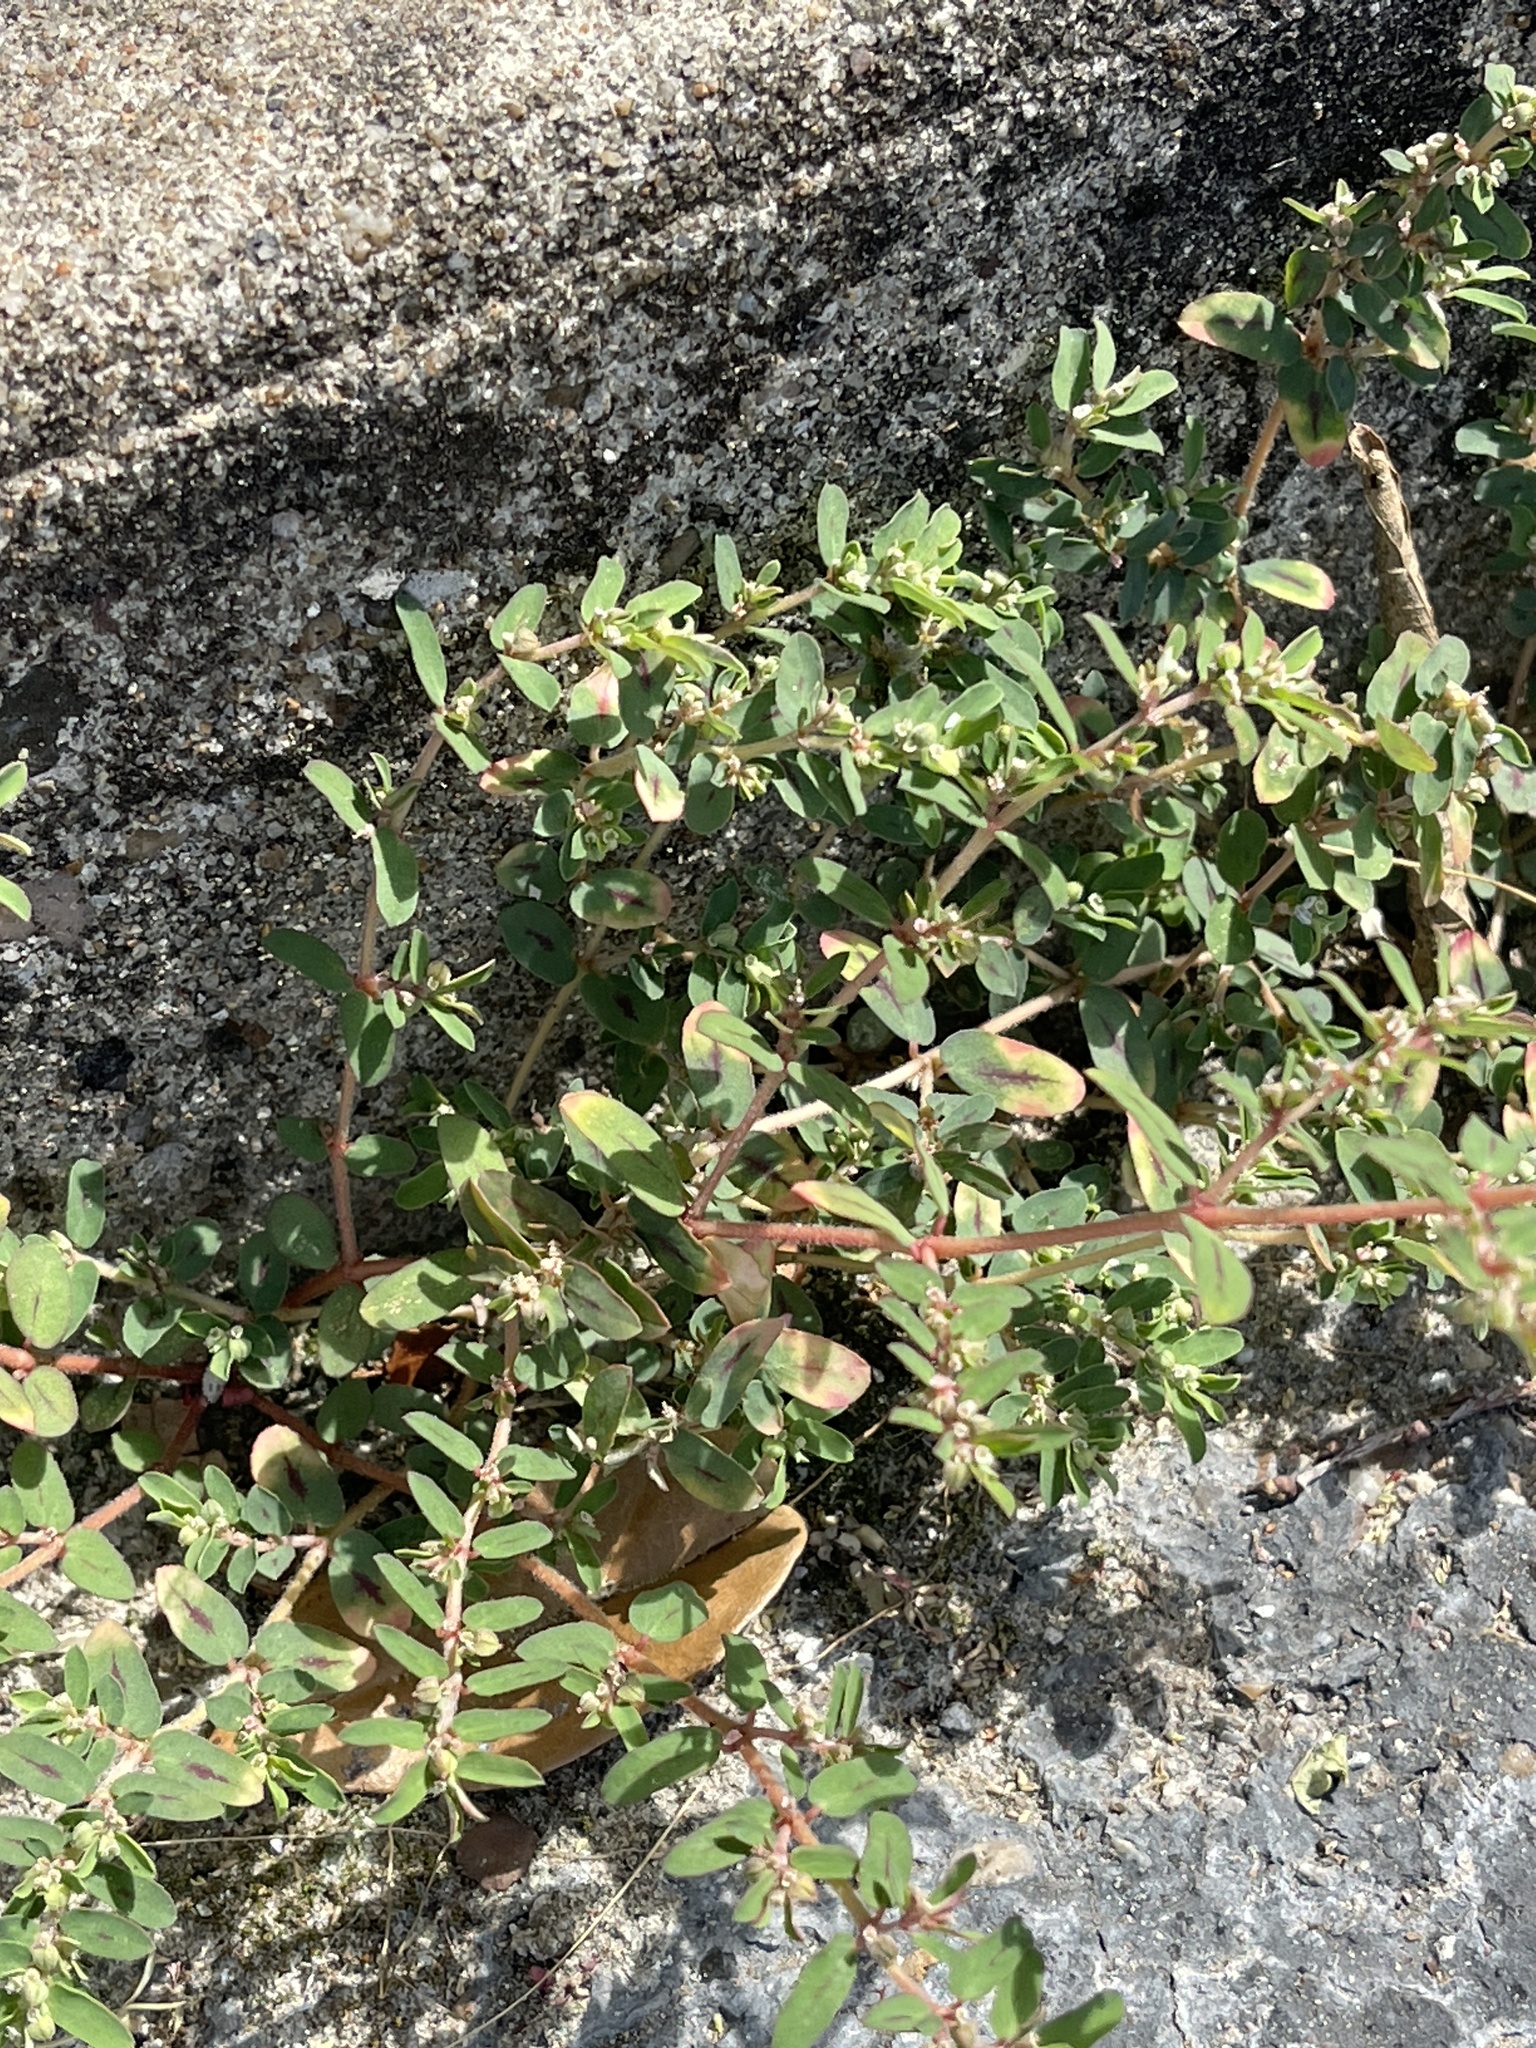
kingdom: Plantae
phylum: Tracheophyta
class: Magnoliopsida
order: Malpighiales
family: Euphorbiaceae
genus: Euphorbia
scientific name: Euphorbia maculata
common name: Spotted spurge
